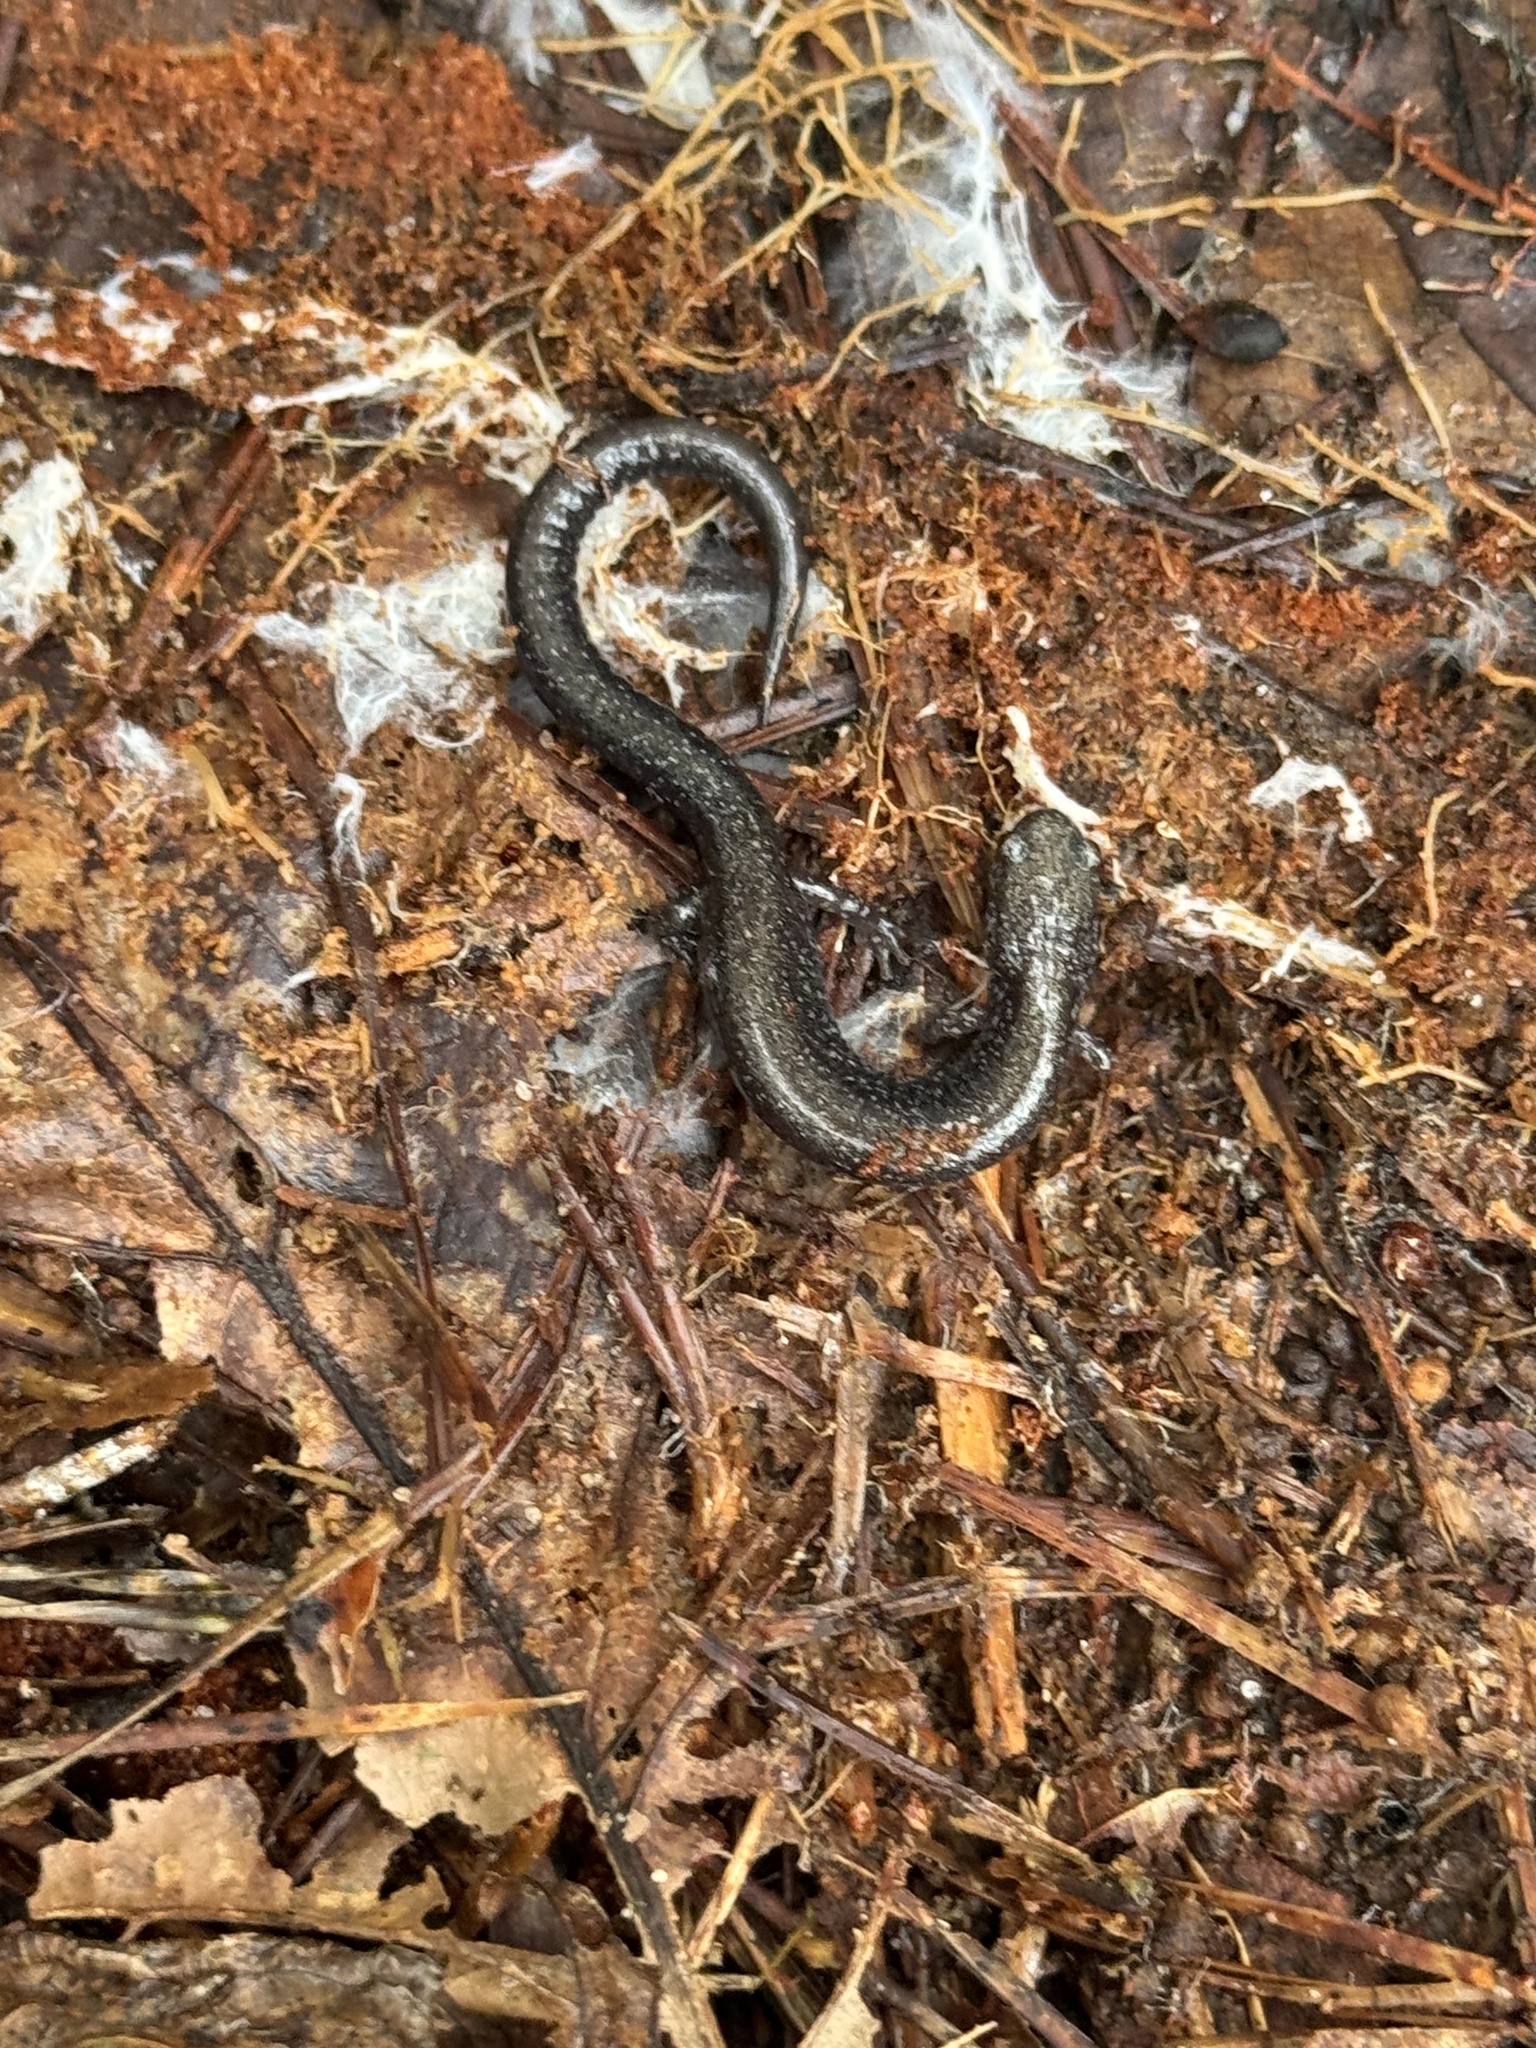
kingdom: Animalia
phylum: Chordata
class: Amphibia
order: Caudata
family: Plethodontidae
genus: Plethodon
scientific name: Plethodon cinereus
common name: Redback salamander
